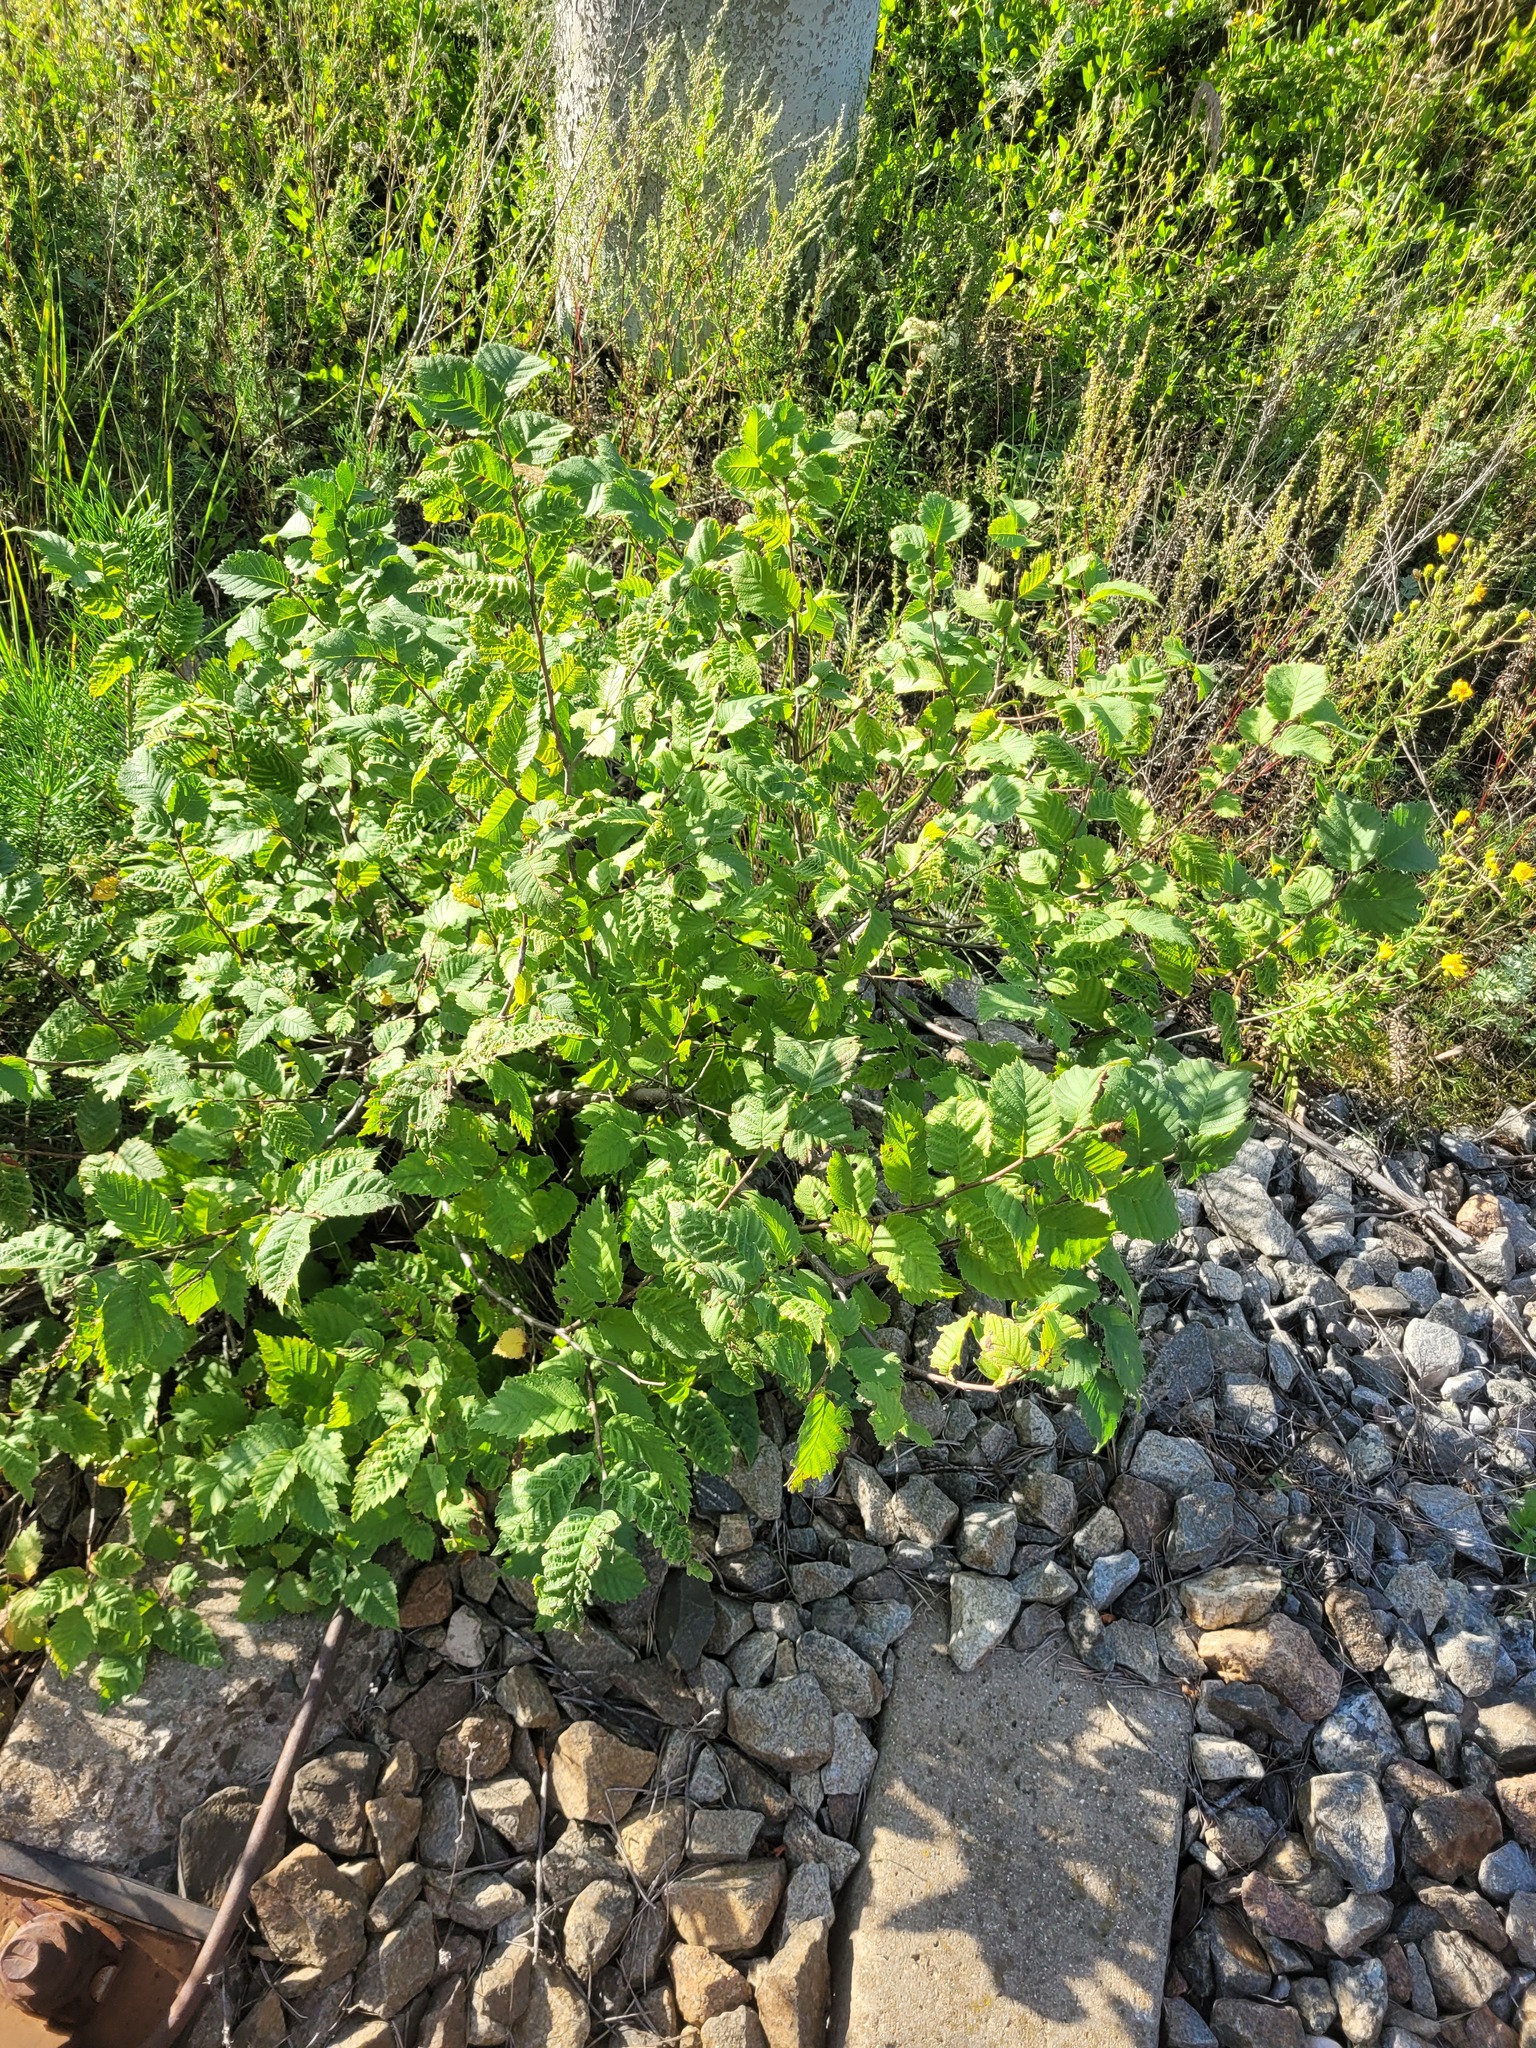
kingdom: Plantae
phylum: Tracheophyta
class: Magnoliopsida
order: Rosales
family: Ulmaceae
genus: Ulmus
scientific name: Ulmus laevis
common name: European white-elm
